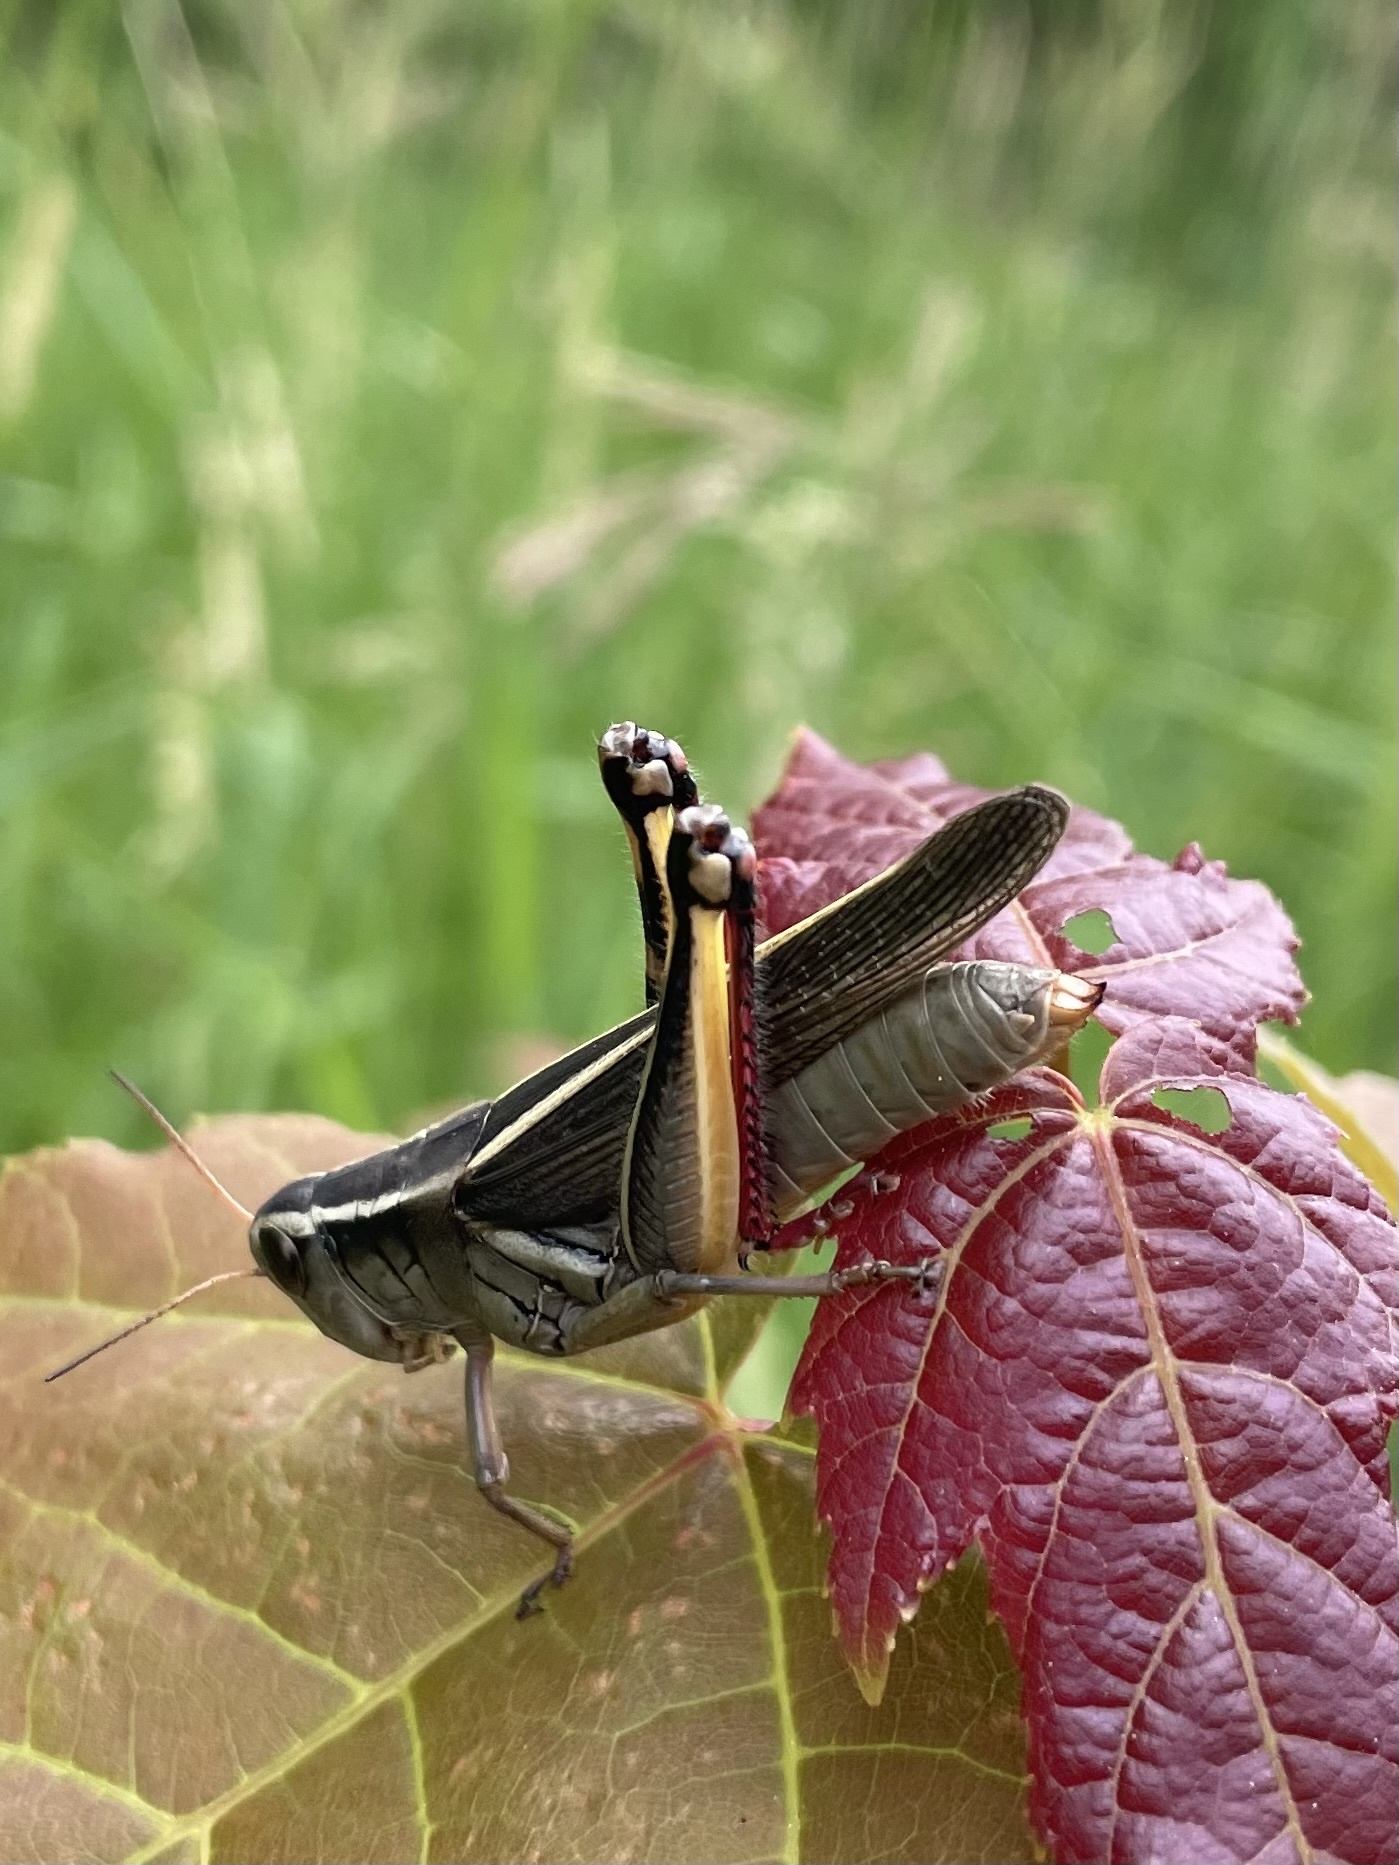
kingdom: Animalia
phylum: Arthropoda
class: Insecta
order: Orthoptera
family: Acrididae
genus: Melanoplus
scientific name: Melanoplus bivittatus
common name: Two-striped grasshopper
